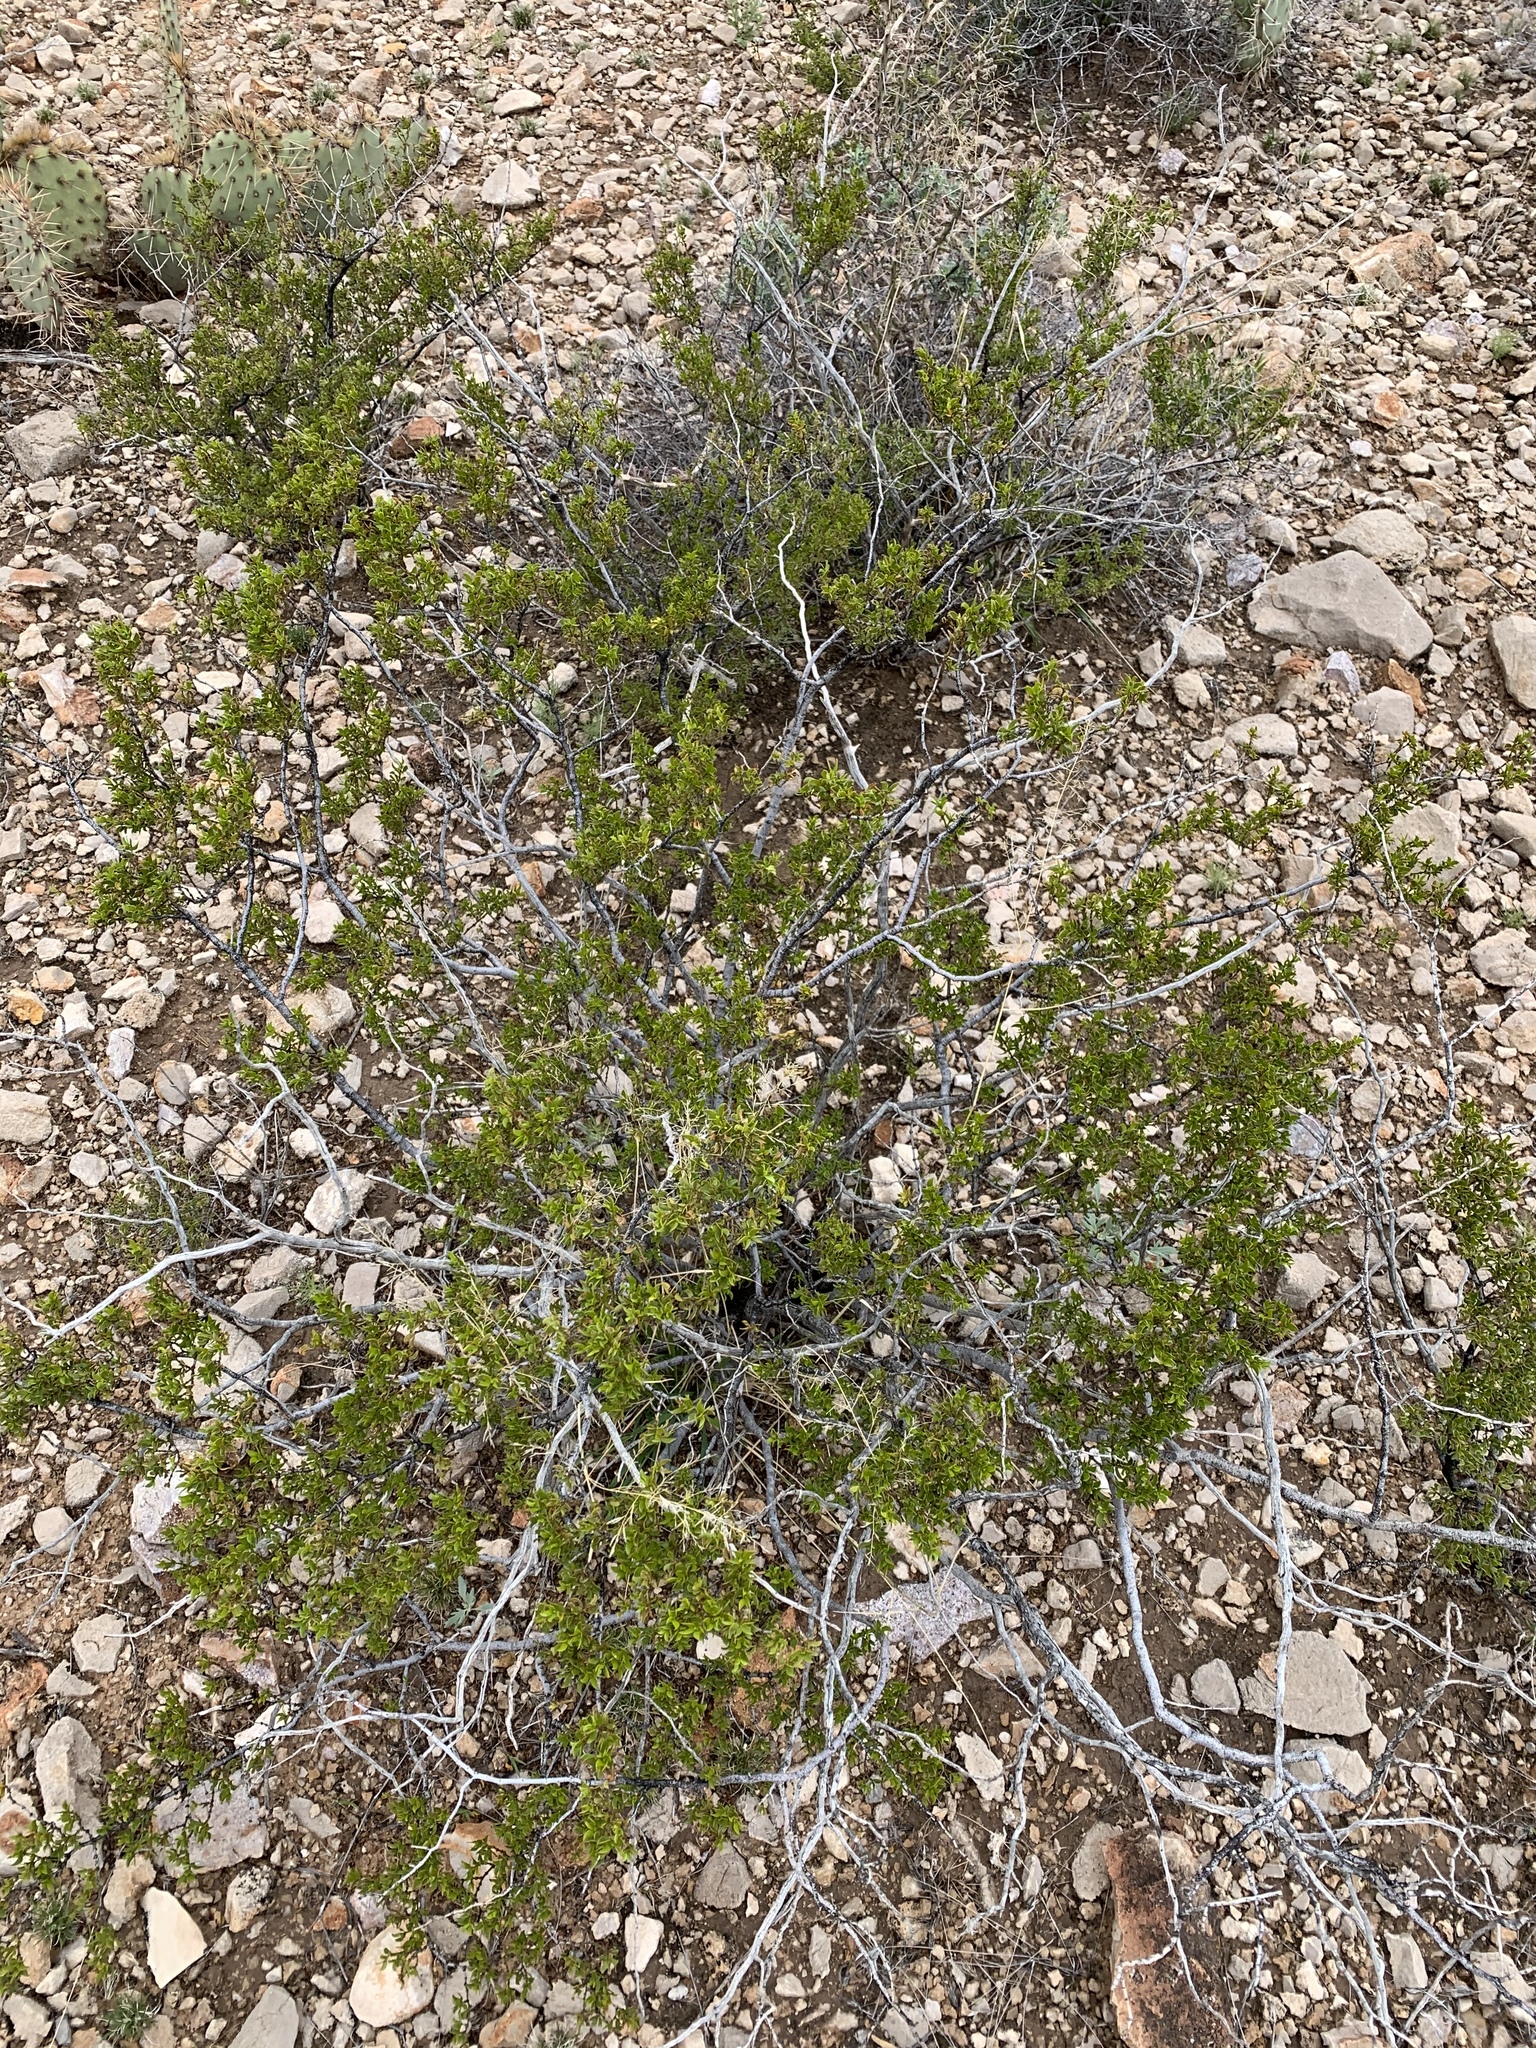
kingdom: Plantae
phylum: Tracheophyta
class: Magnoliopsida
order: Zygophyllales
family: Zygophyllaceae
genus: Larrea
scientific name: Larrea tridentata
